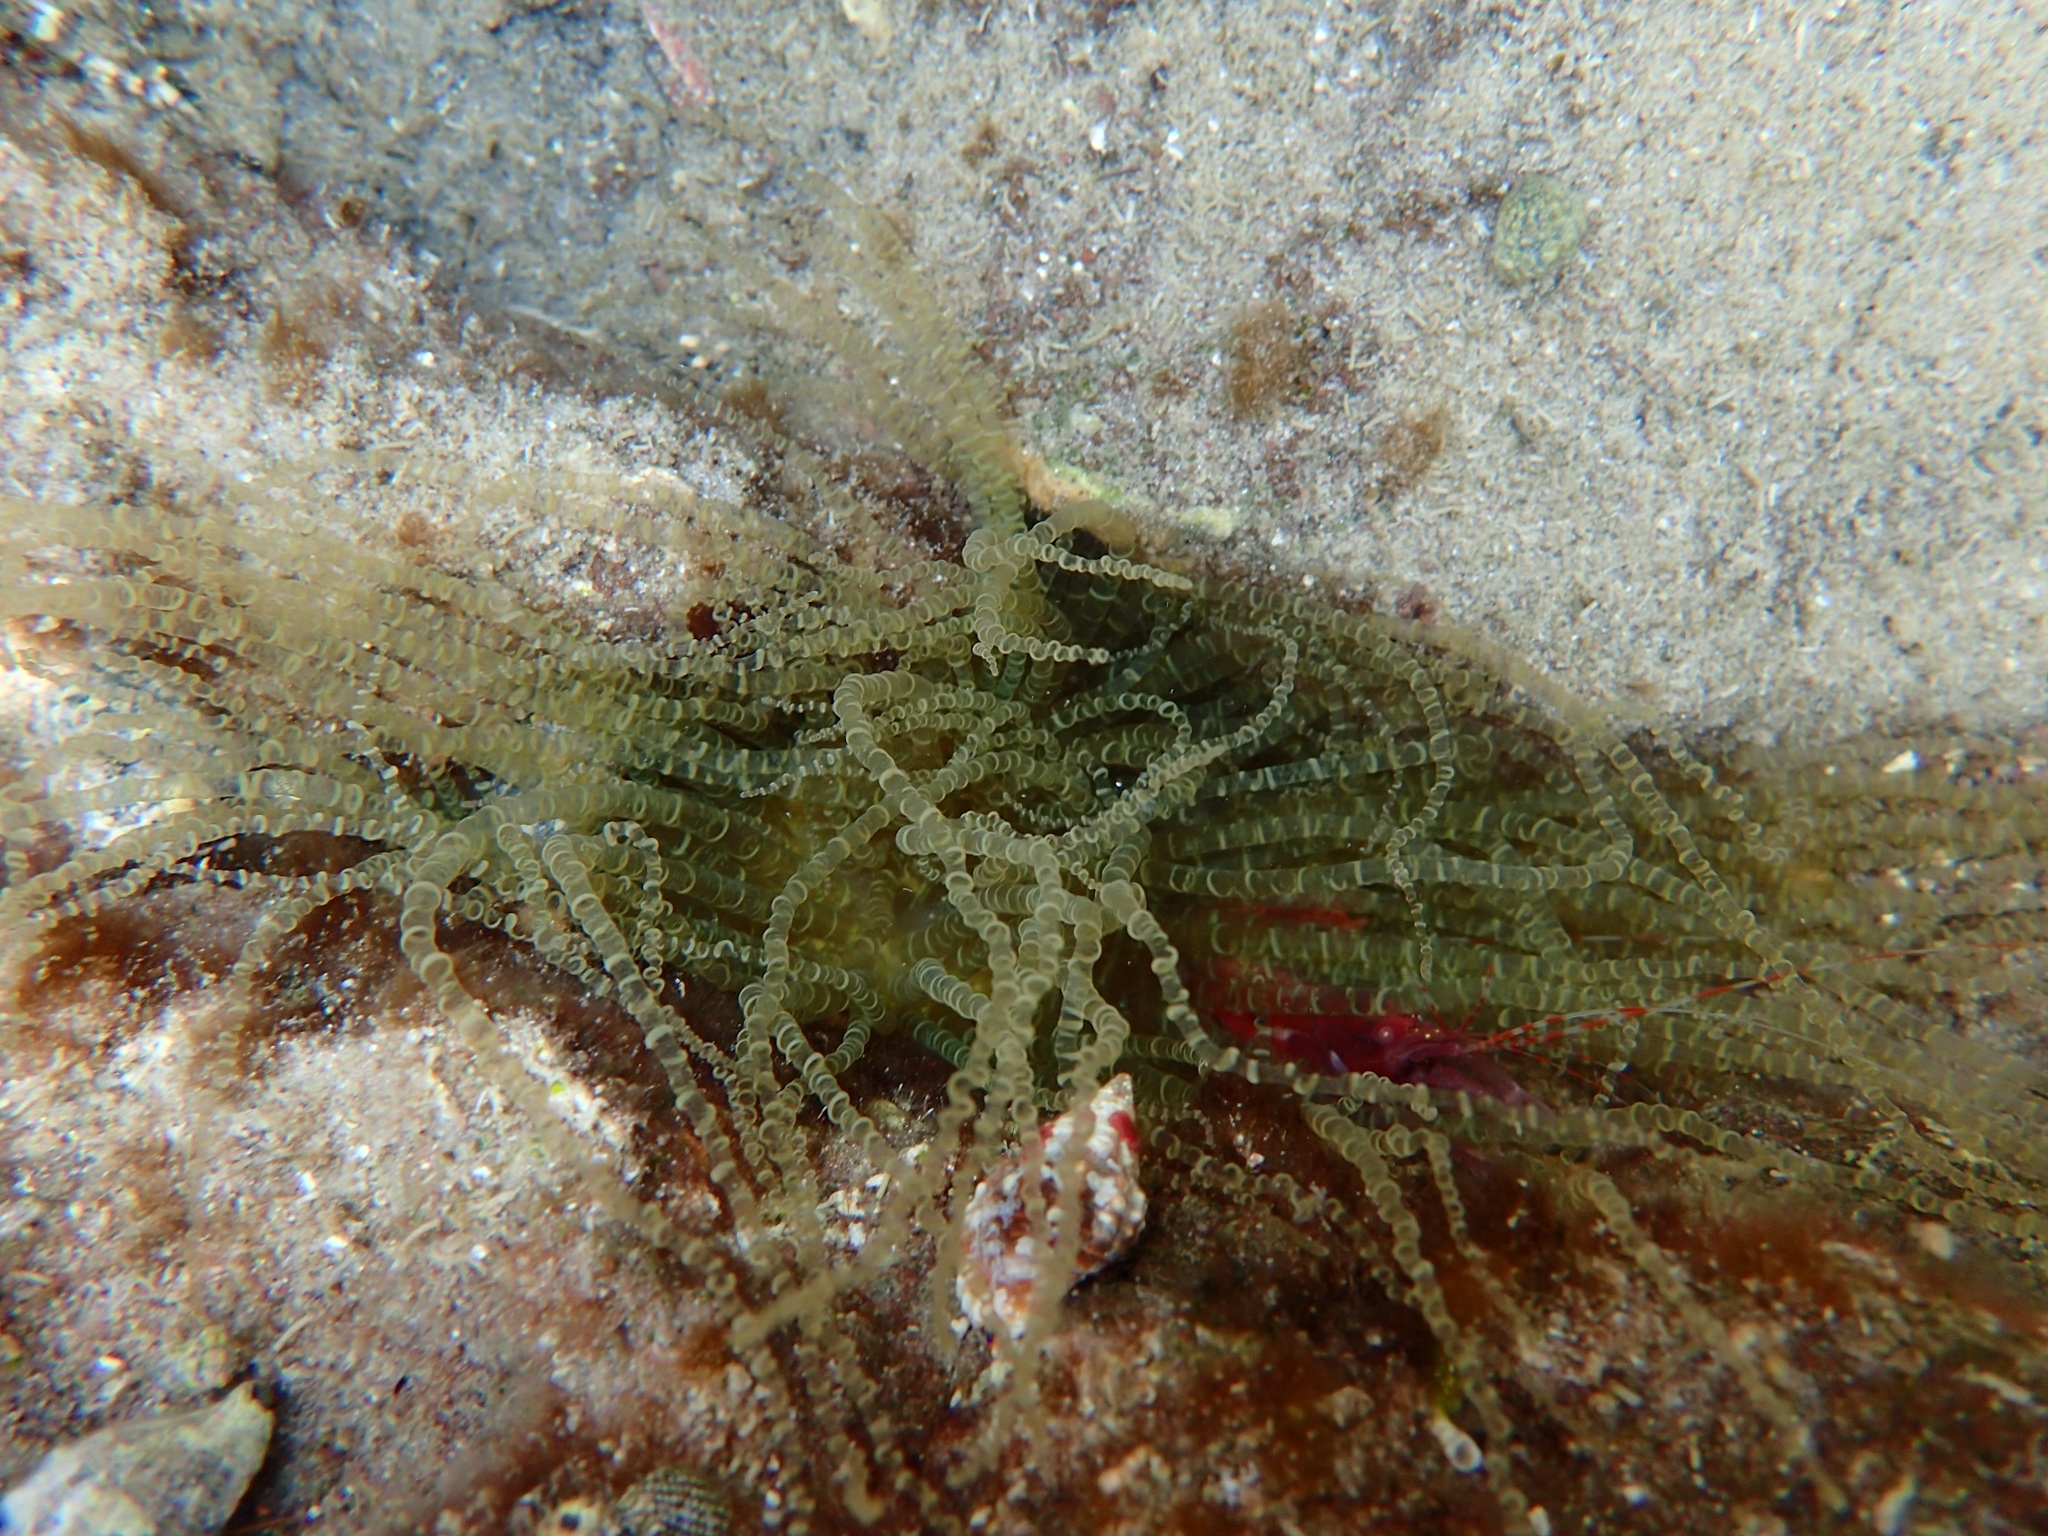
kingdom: Animalia
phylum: Cnidaria
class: Anthozoa
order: Actiniaria
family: Aiptasiidae
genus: Bartholomea
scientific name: Bartholomea annulata
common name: Corkscrew anemone
